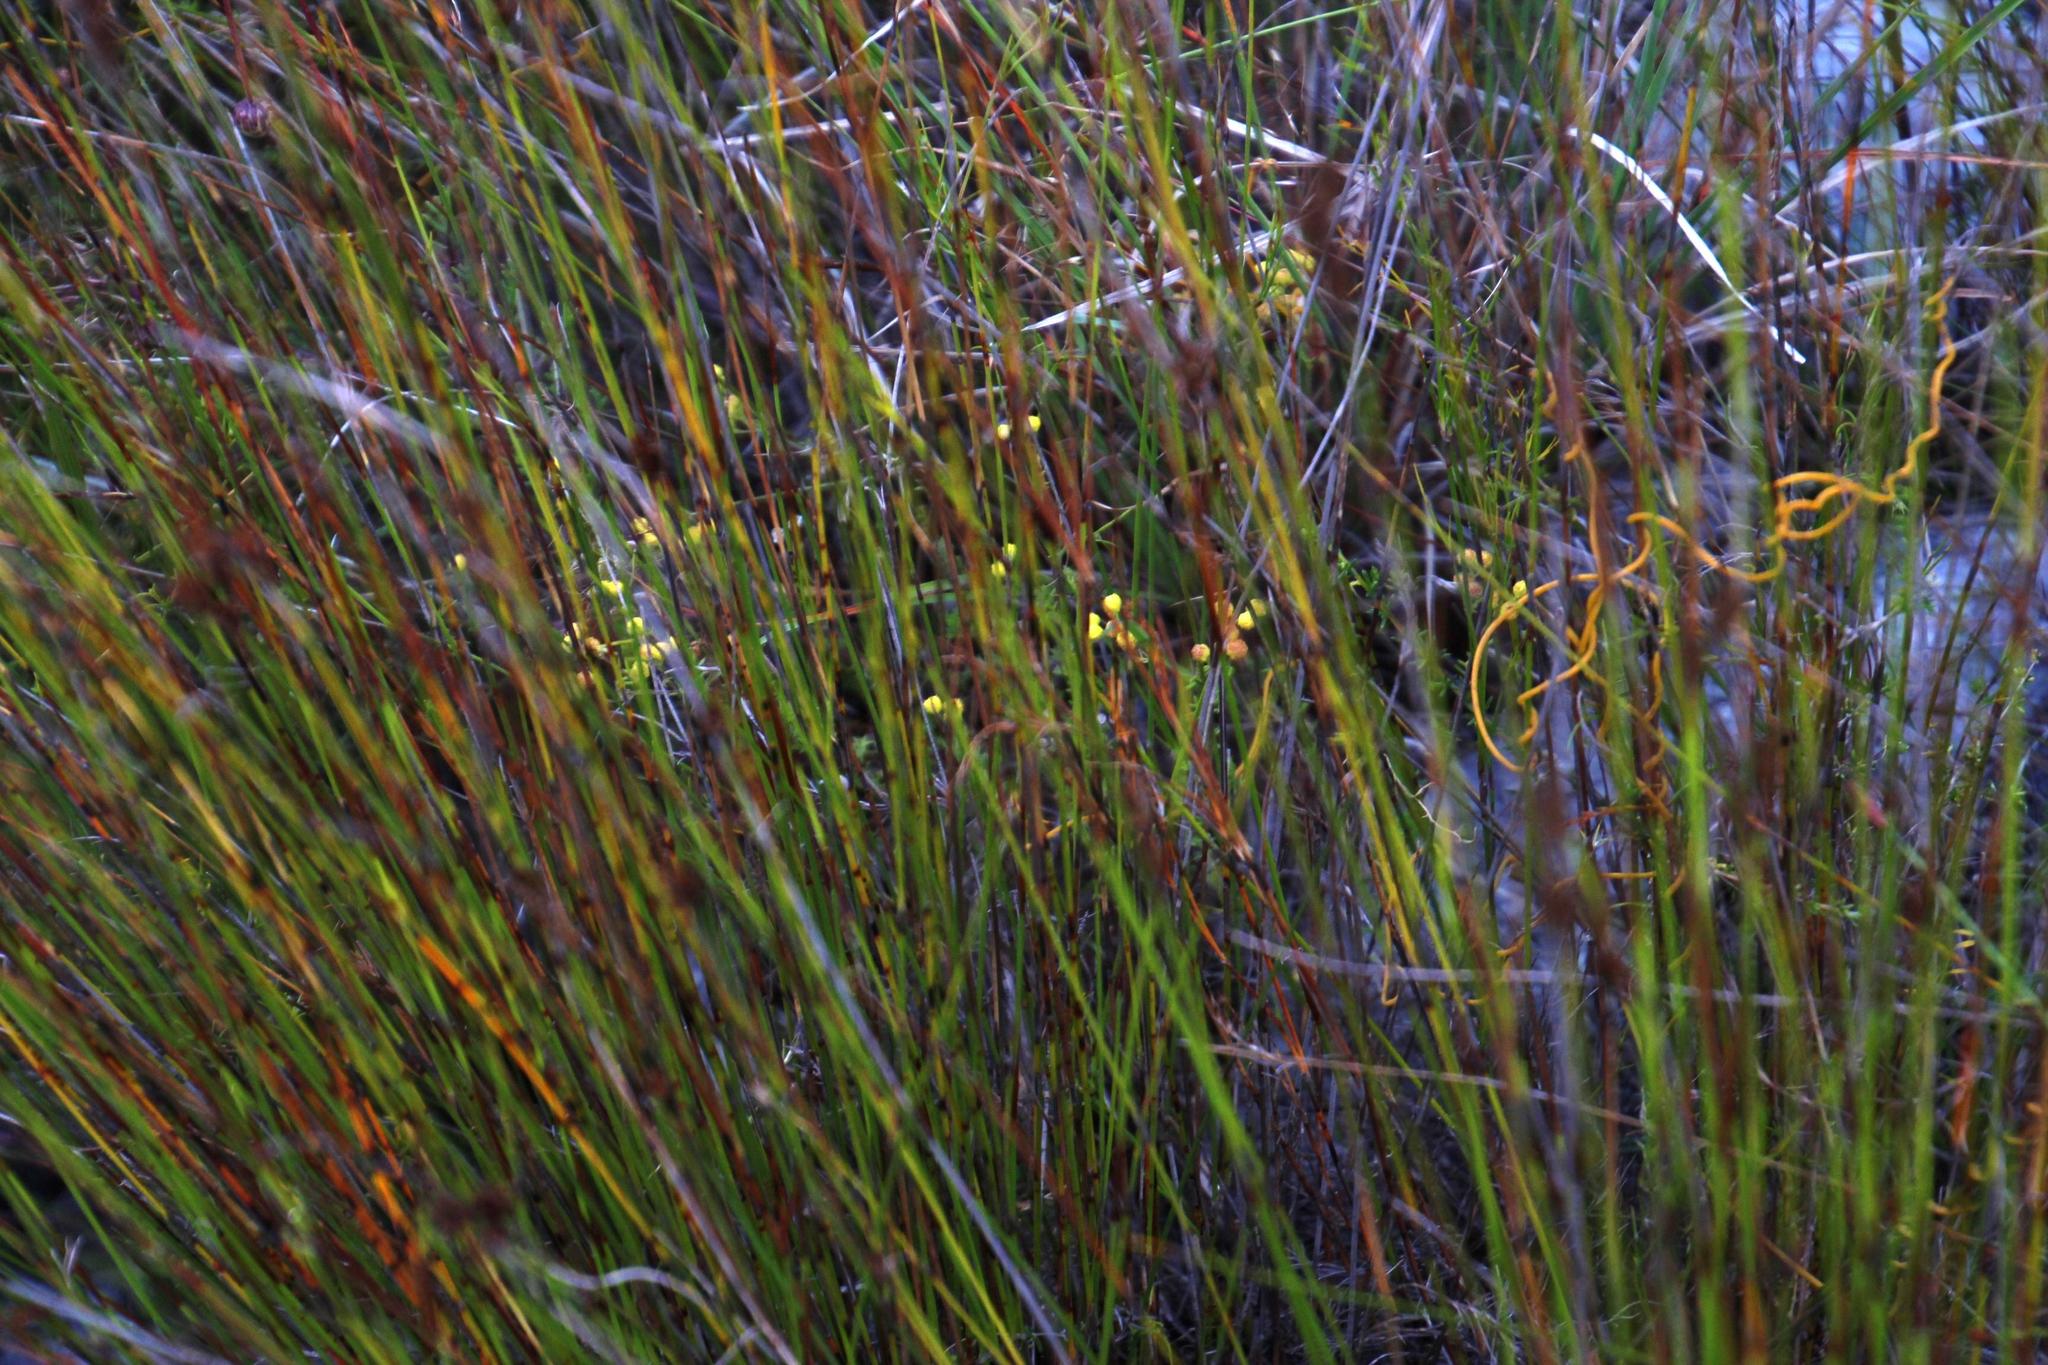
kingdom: Plantae
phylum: Tracheophyta
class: Magnoliopsida
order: Asterales
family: Asteraceae
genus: Hippia
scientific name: Hippia pilosa
